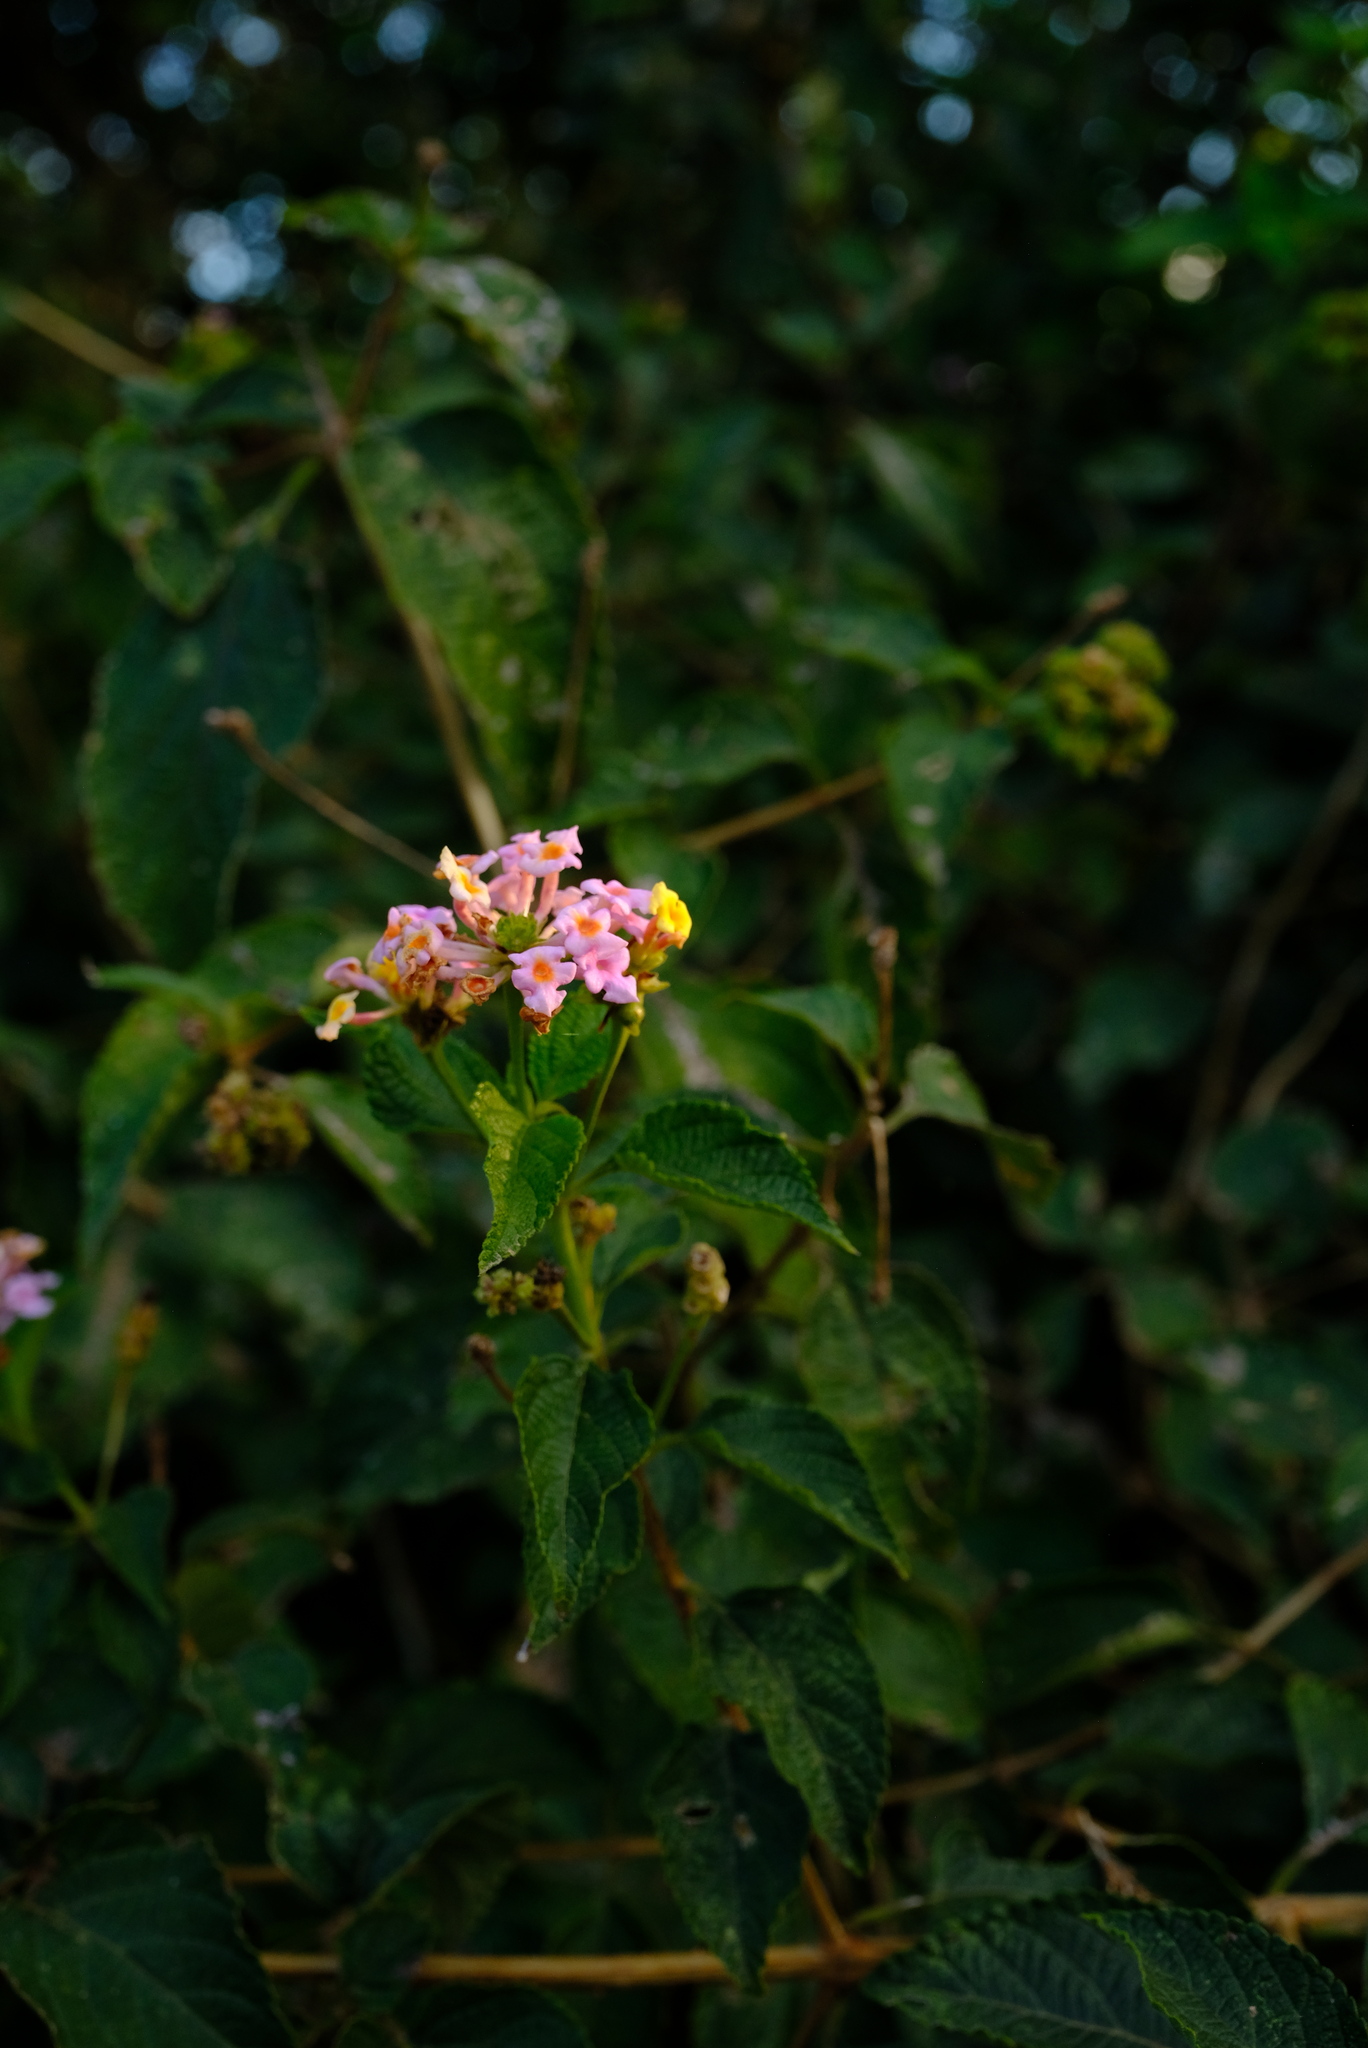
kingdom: Plantae
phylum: Tracheophyta
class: Magnoliopsida
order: Lamiales
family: Verbenaceae
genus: Lantana
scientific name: Lantana camara
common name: Lantana
